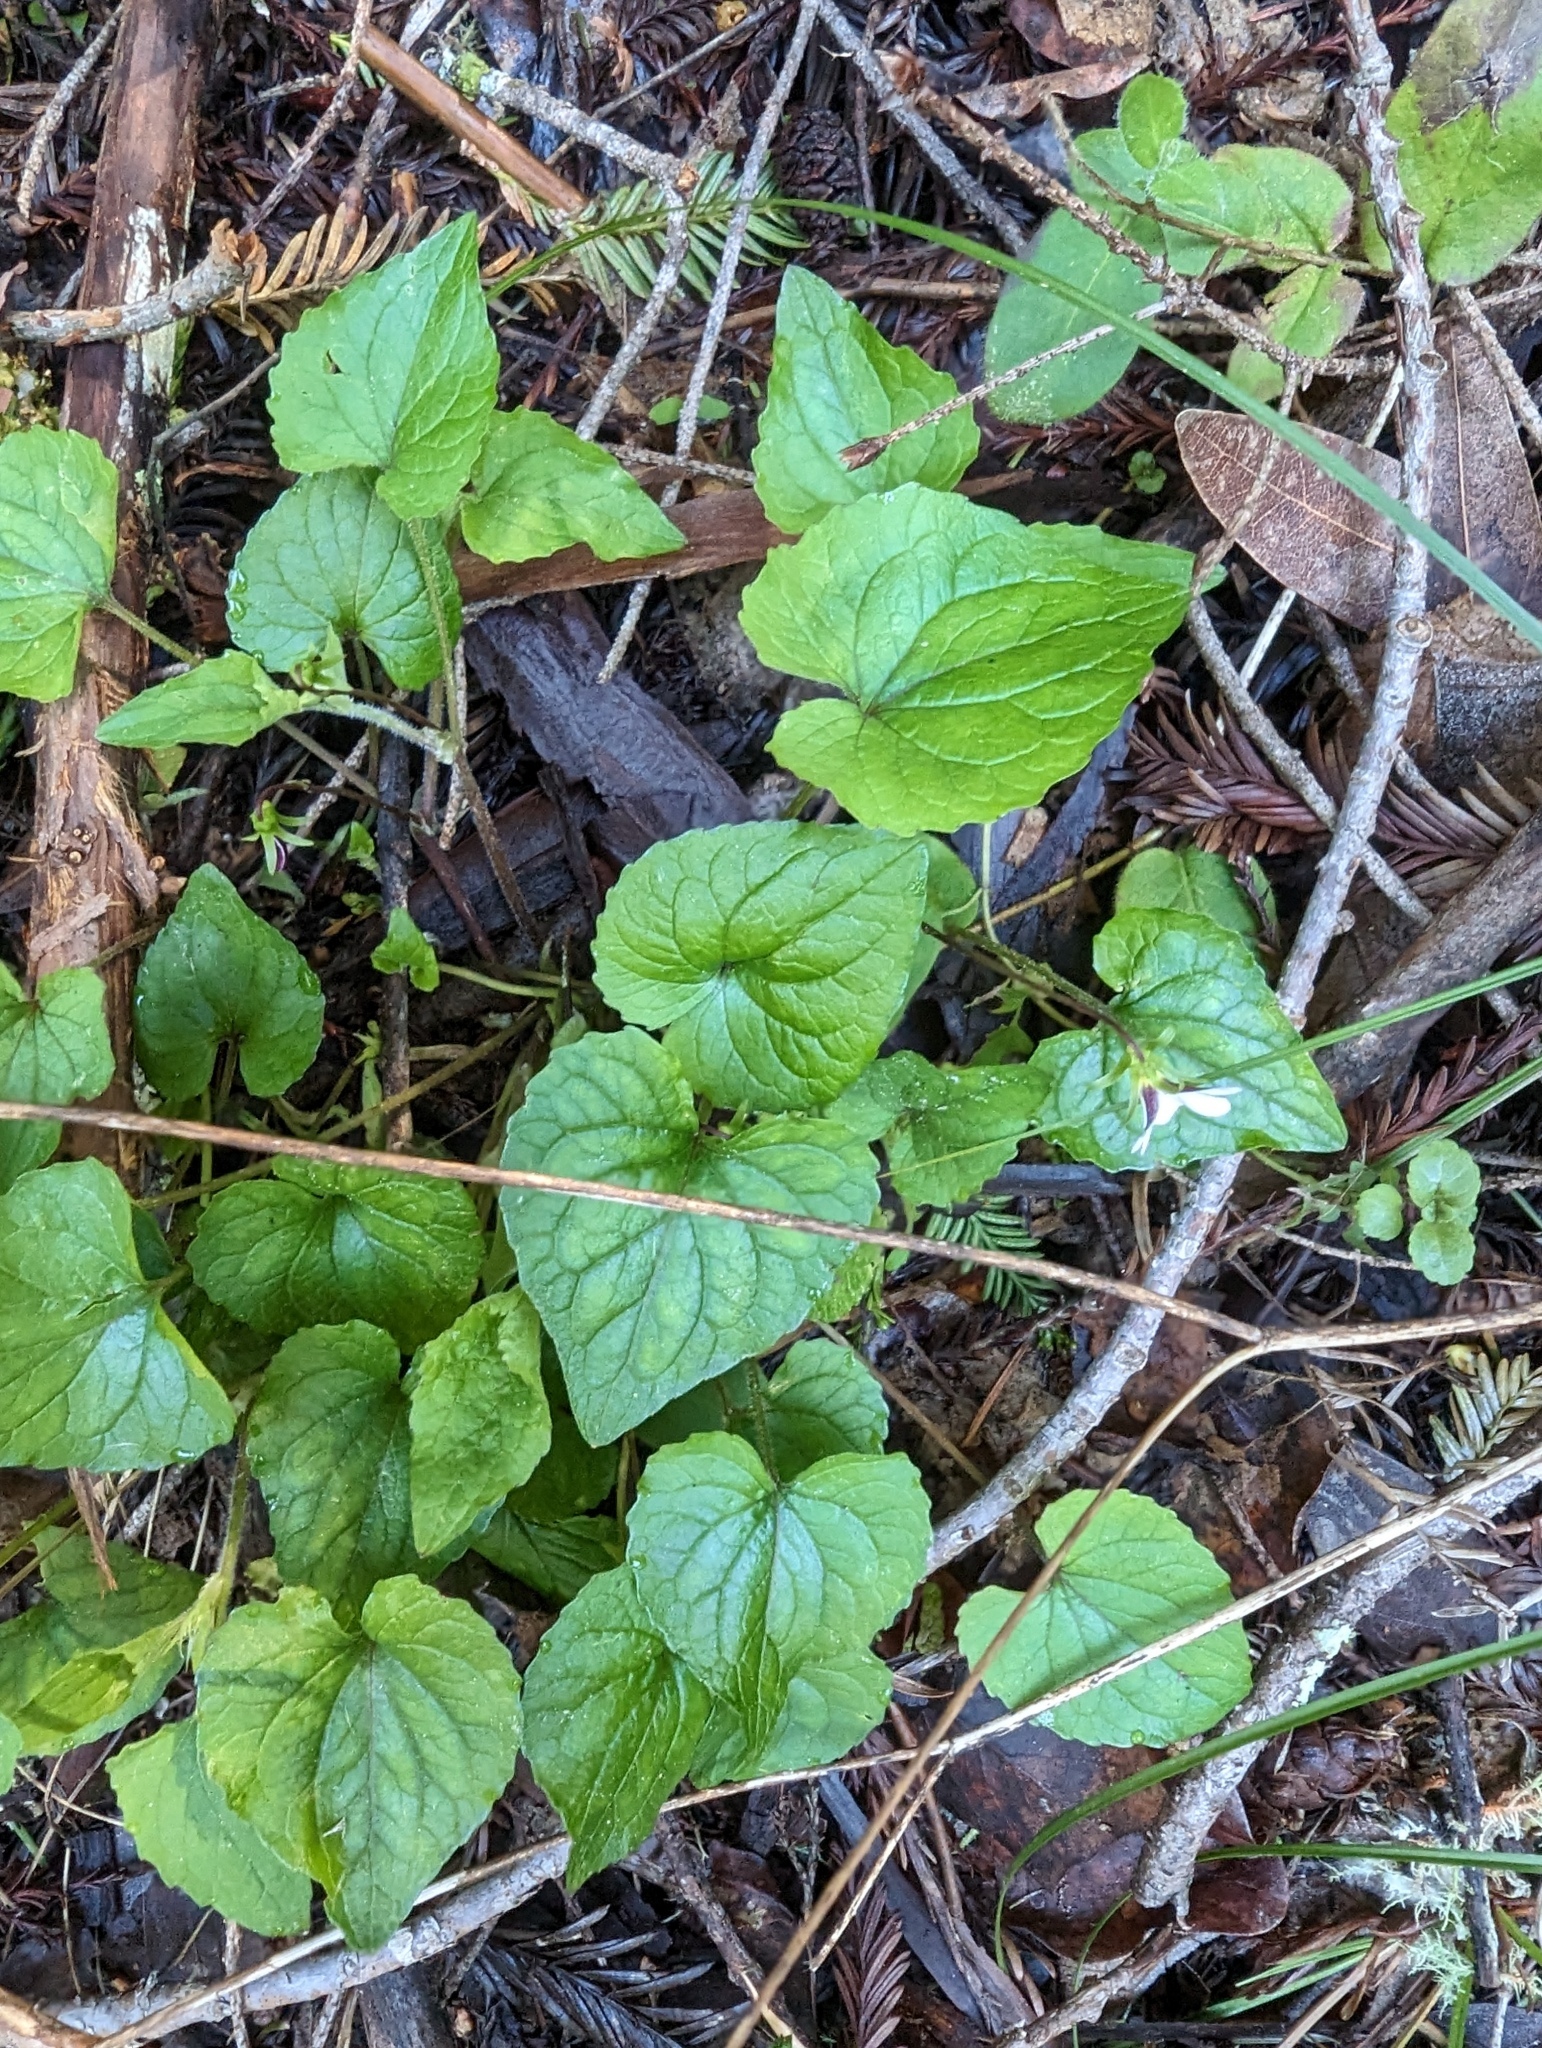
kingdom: Plantae
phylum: Tracheophyta
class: Magnoliopsida
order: Malpighiales
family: Violaceae
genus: Viola
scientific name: Viola ocellata
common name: Western heart's ease
